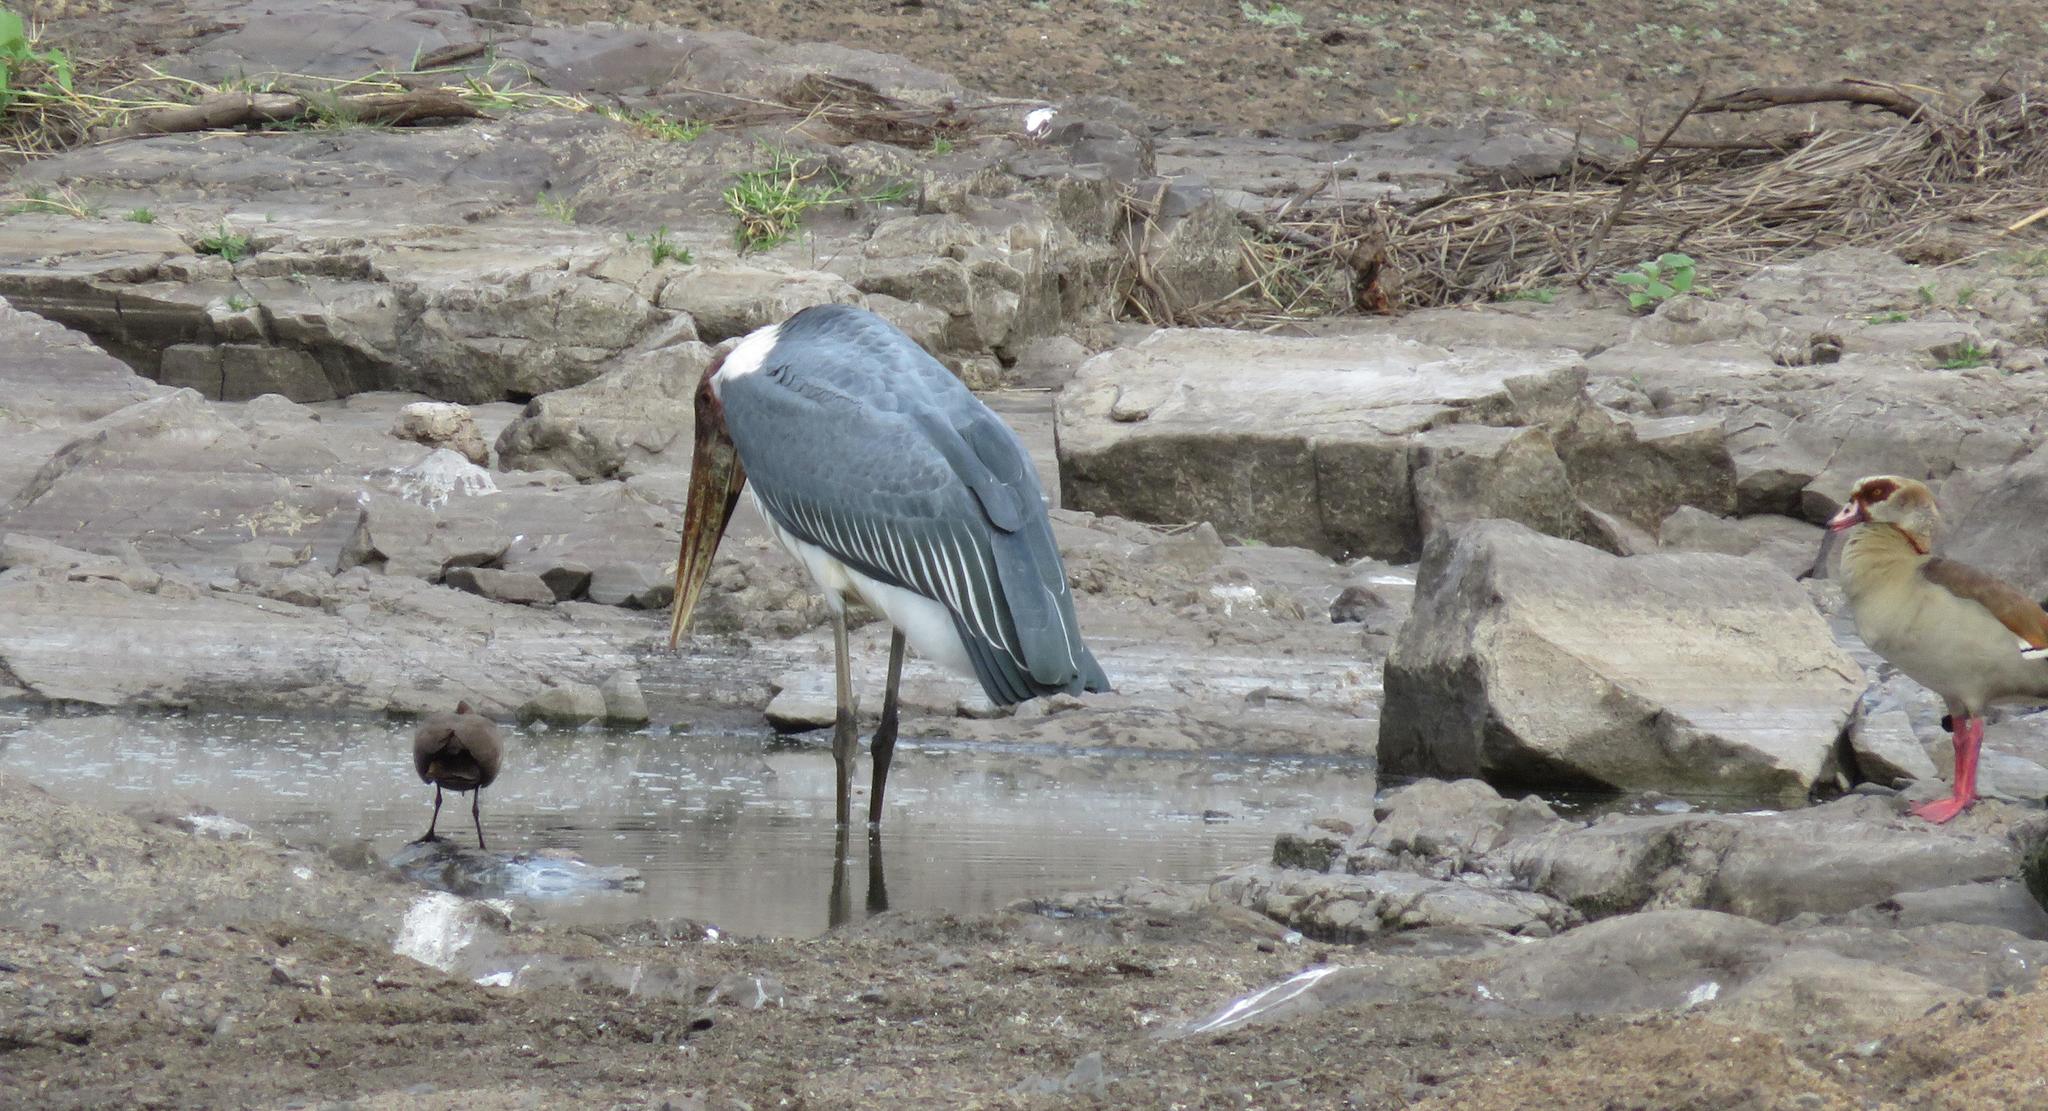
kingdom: Animalia
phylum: Chordata
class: Aves
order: Ciconiiformes
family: Ciconiidae
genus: Leptoptilos
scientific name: Leptoptilos crumenifer
